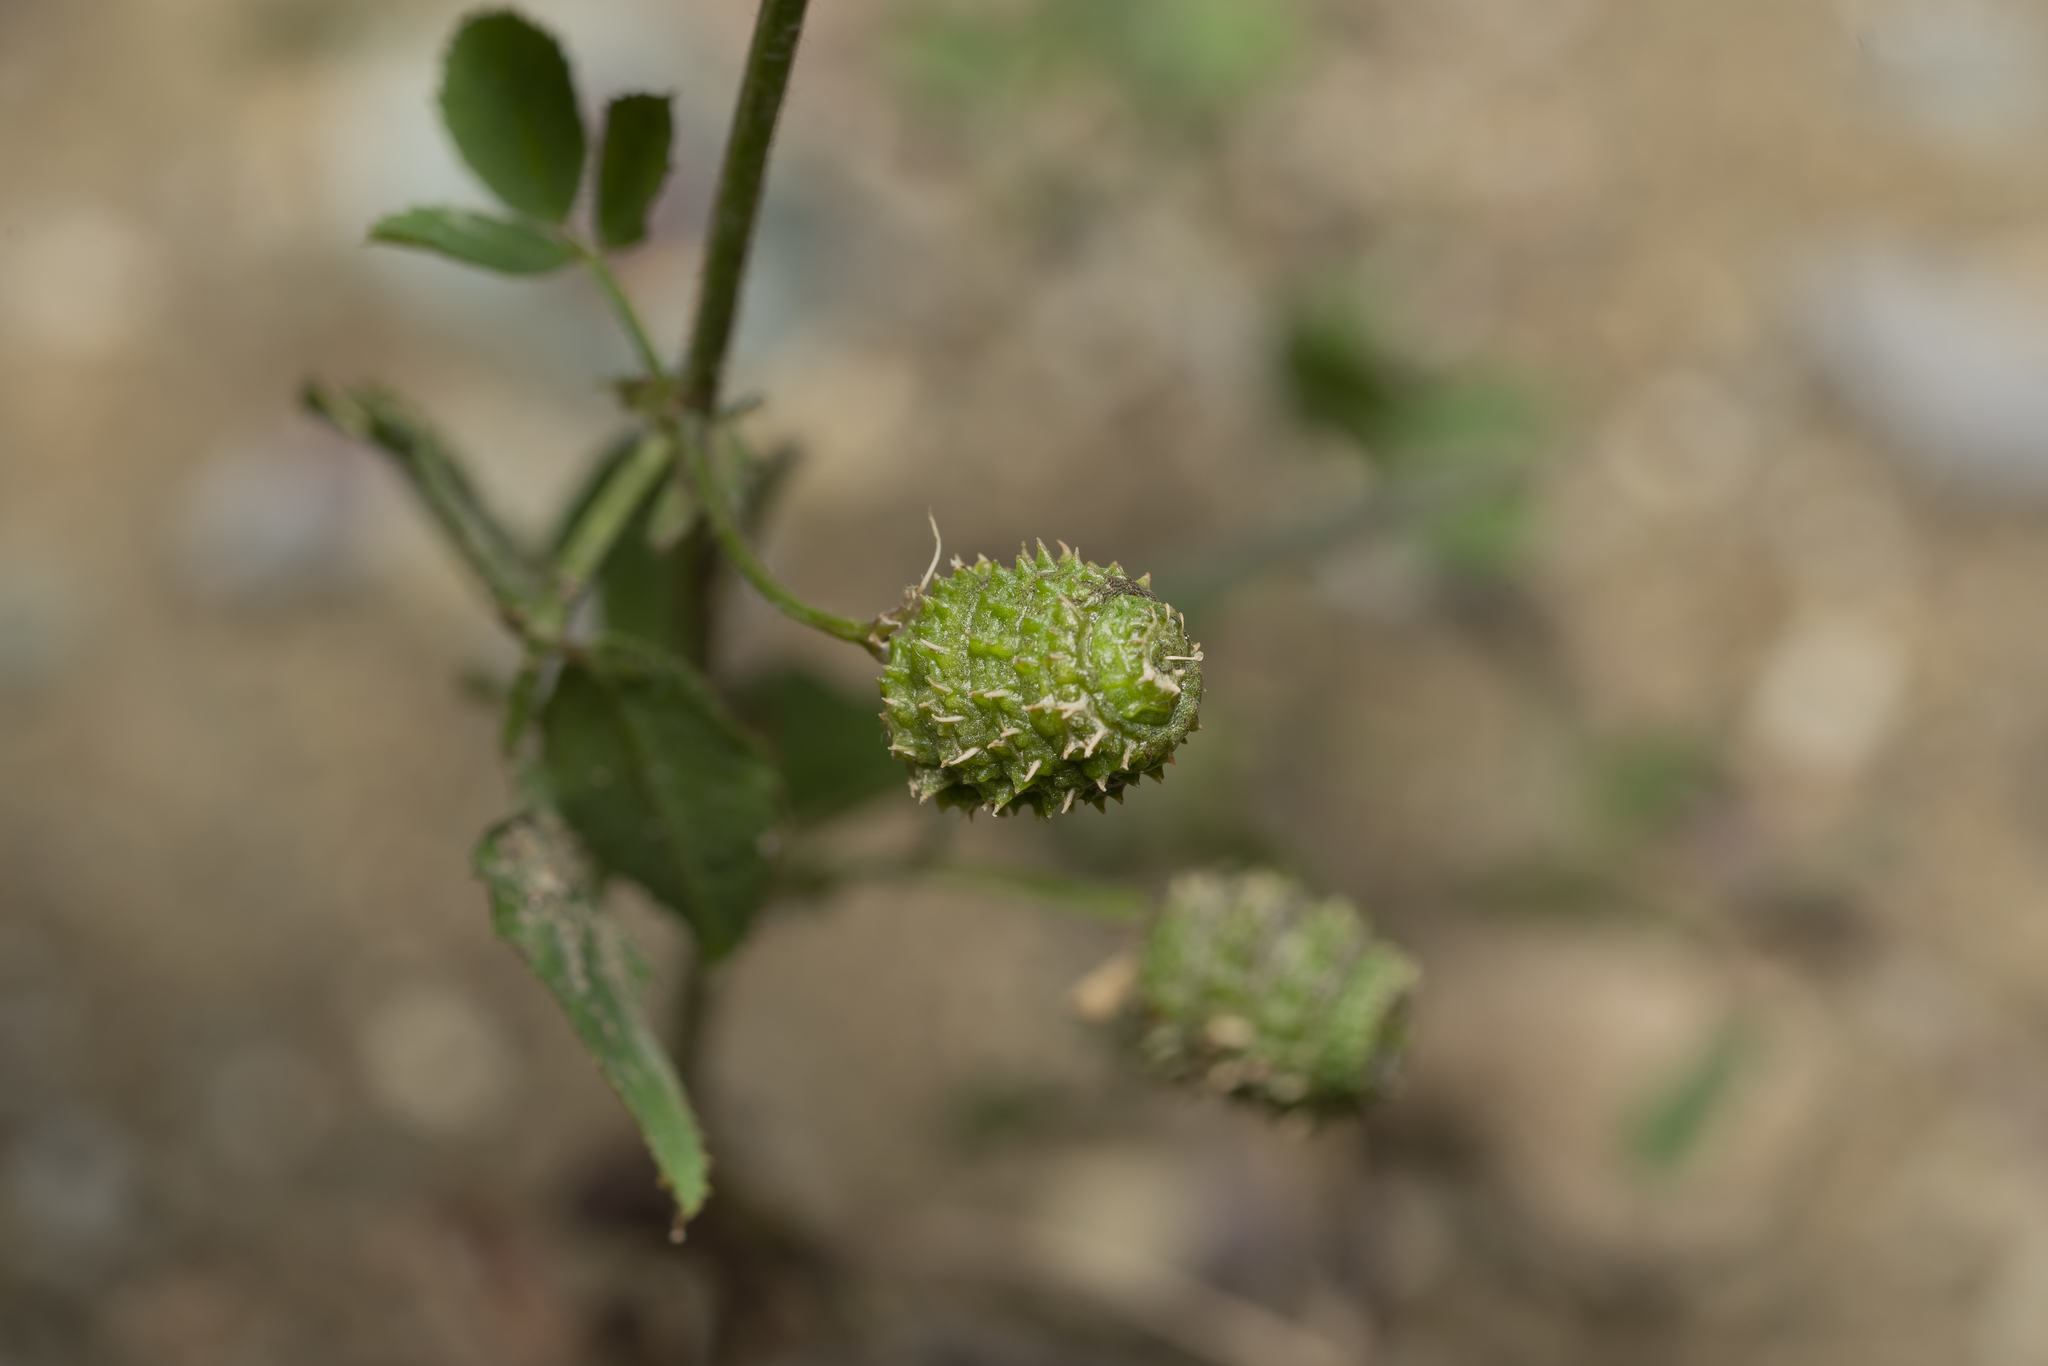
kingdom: Plantae
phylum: Tracheophyta
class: Magnoliopsida
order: Fabales
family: Fabaceae
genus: Medicago
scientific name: Medicago turbinata
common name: Southern medick
